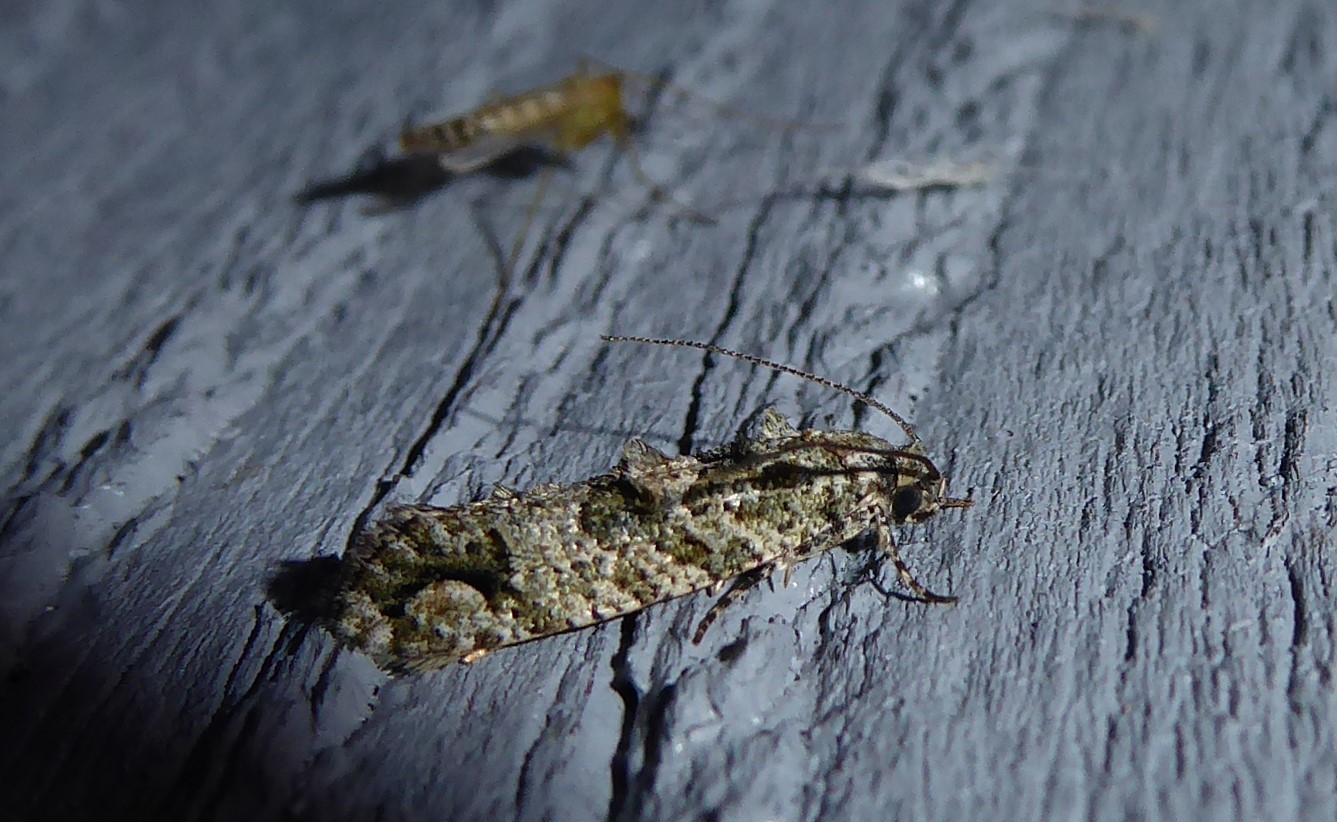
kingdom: Animalia
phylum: Arthropoda
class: Insecta
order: Lepidoptera
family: Tineidae
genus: Lysiphragma
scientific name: Lysiphragma howesii
